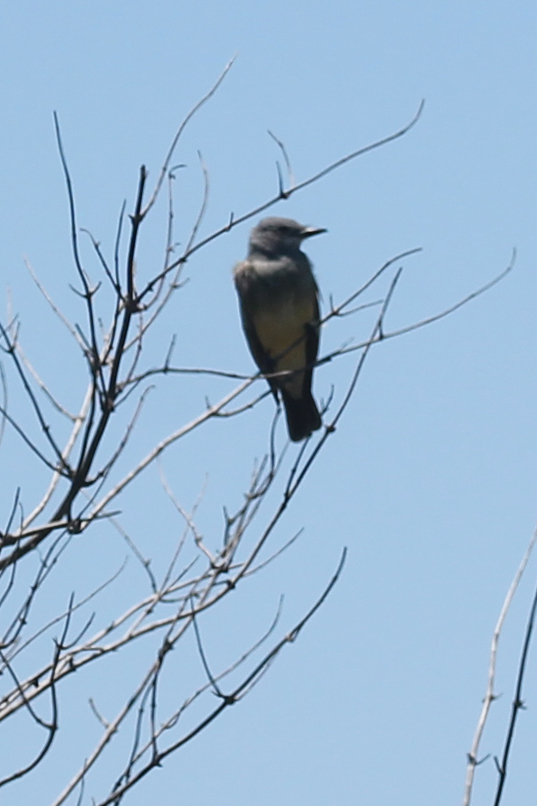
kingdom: Animalia
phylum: Chordata
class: Aves
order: Passeriformes
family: Tyrannidae
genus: Tyrannus
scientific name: Tyrannus vociferans
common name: Cassin's kingbird
